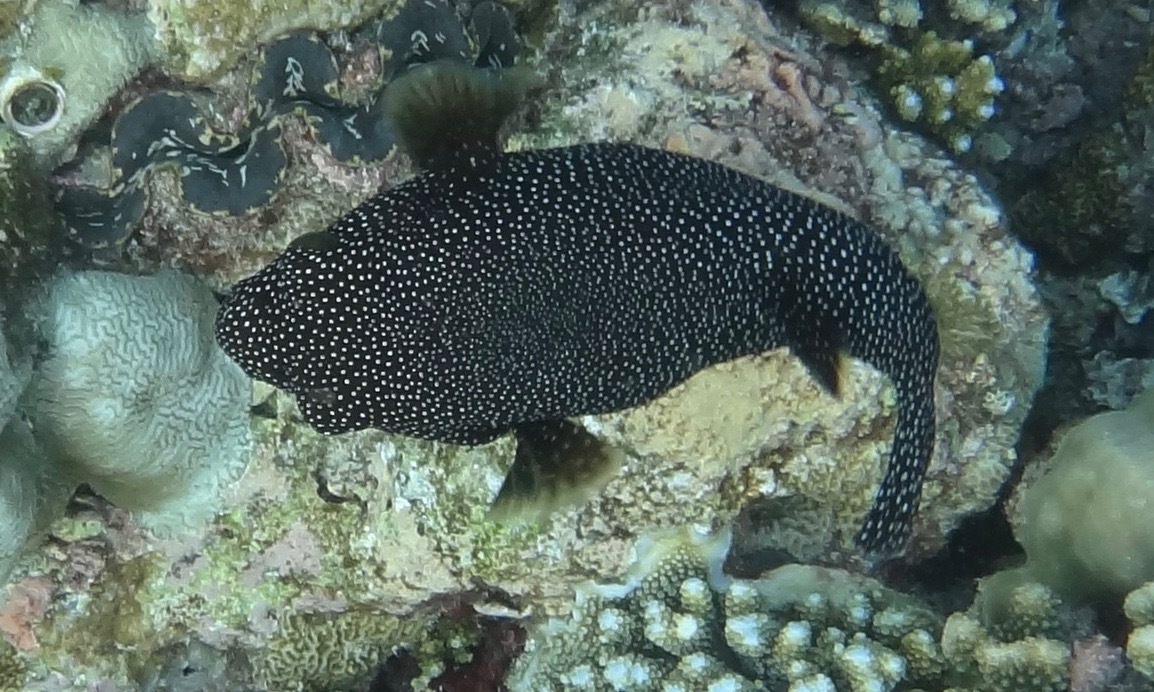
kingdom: Animalia
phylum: Chordata
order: Tetraodontiformes
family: Tetraodontidae
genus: Arothron
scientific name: Arothron meleagris
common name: Guinea-fowl pufferfish
